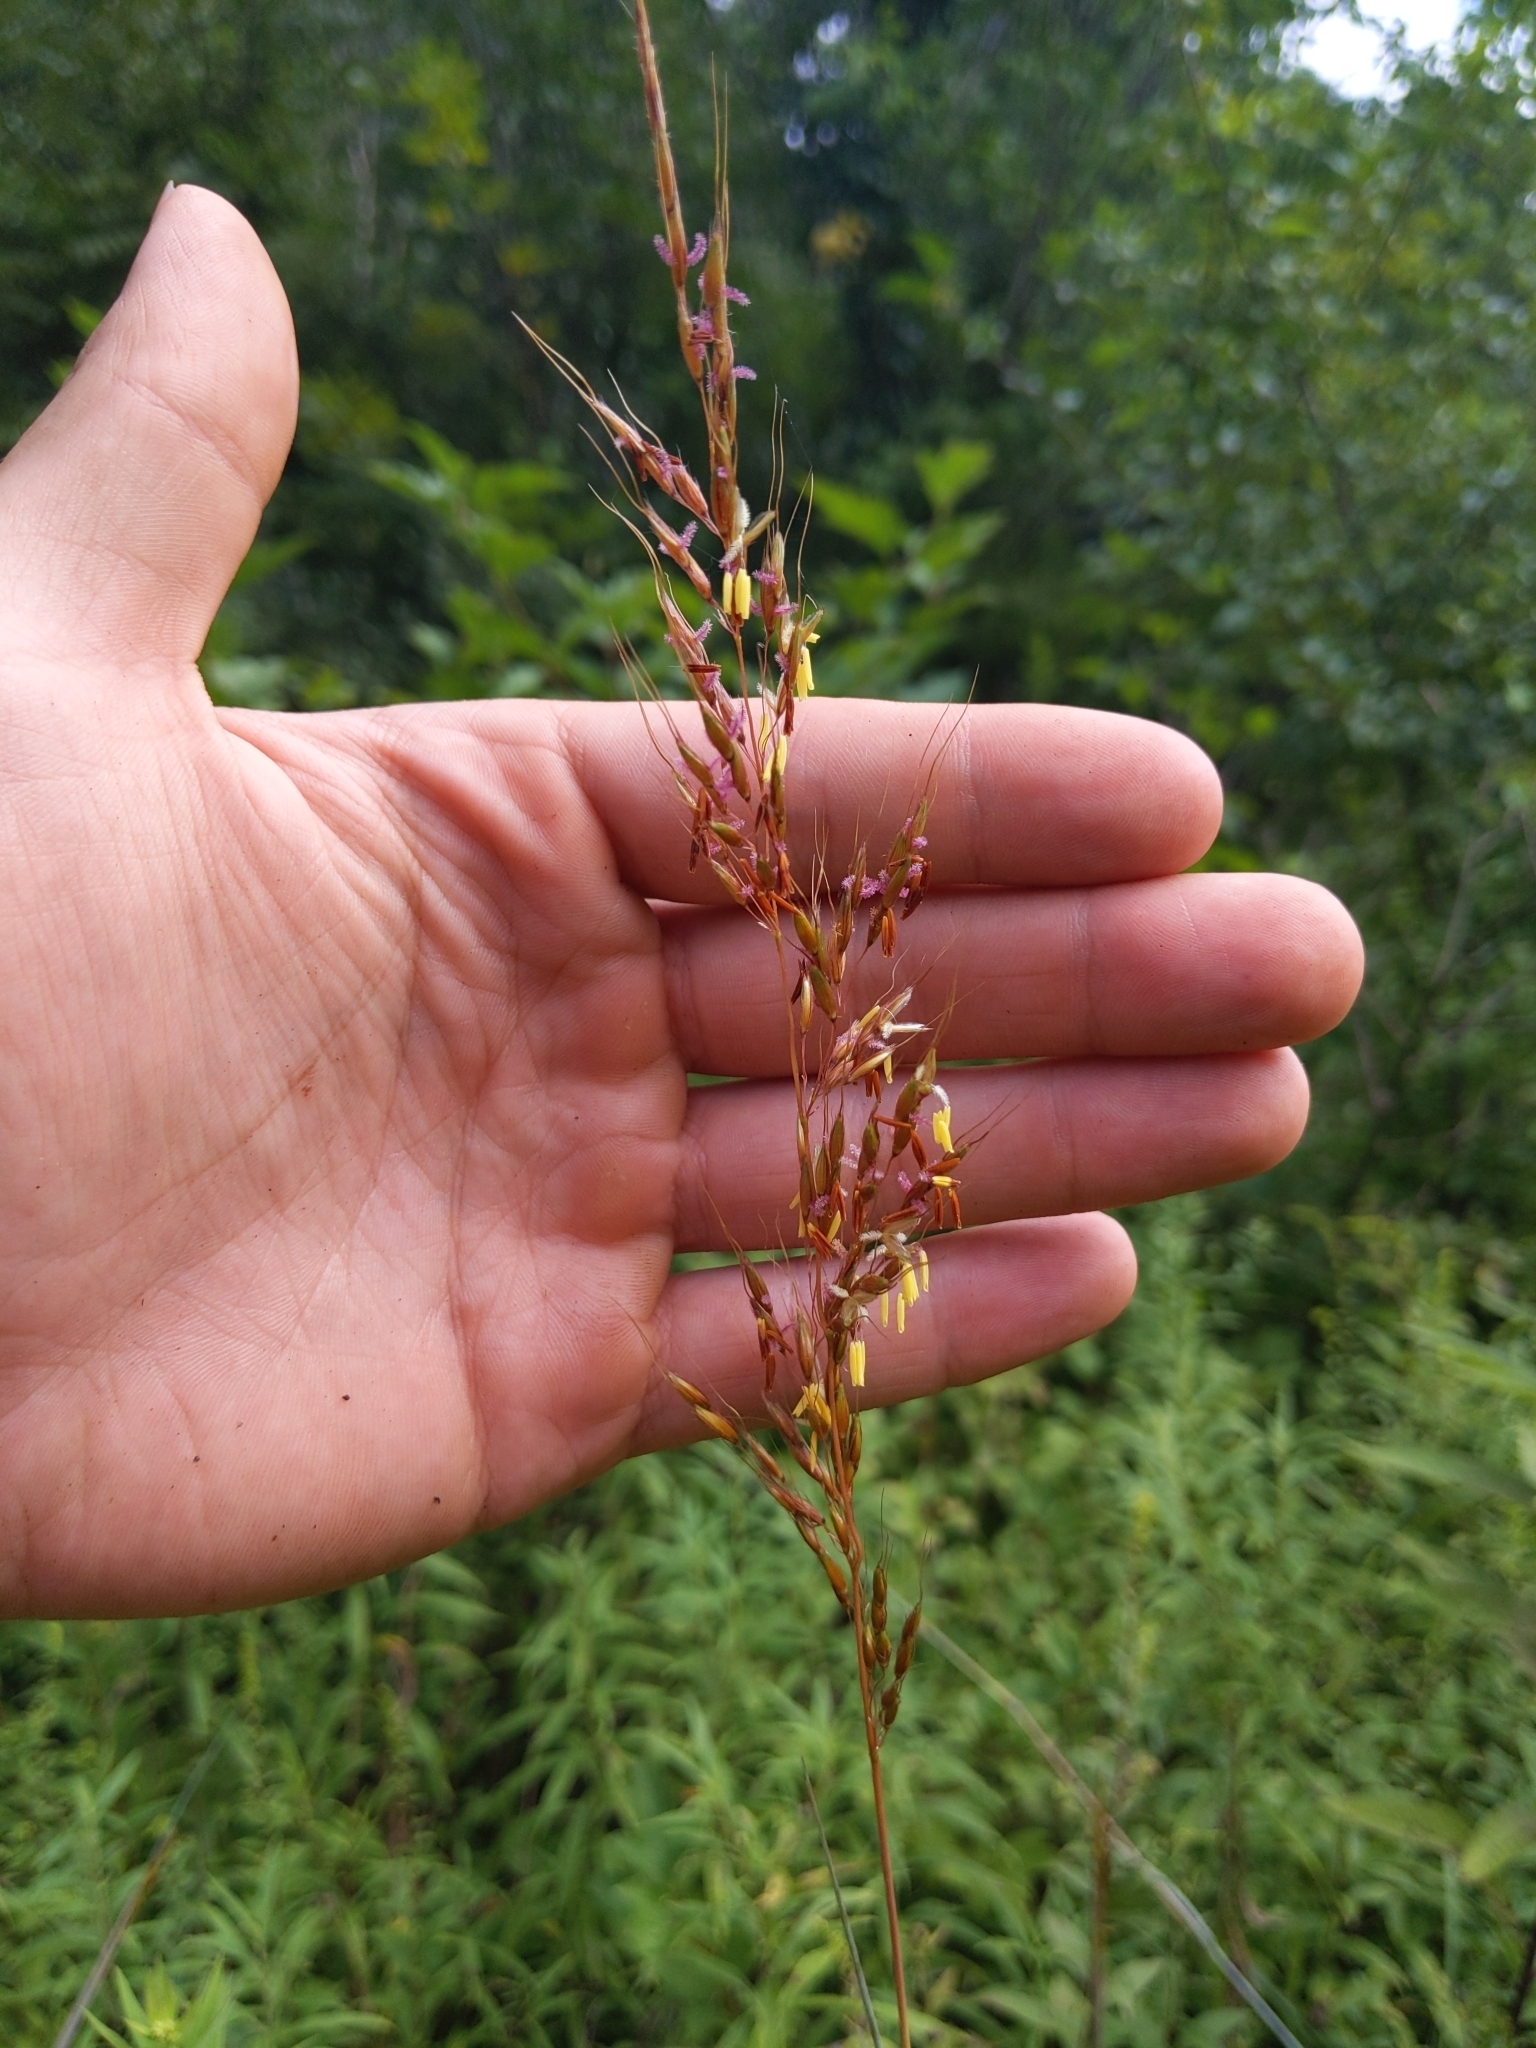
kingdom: Plantae
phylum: Tracheophyta
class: Liliopsida
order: Poales
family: Poaceae
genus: Sorghastrum
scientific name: Sorghastrum nutans
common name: Indian grass
